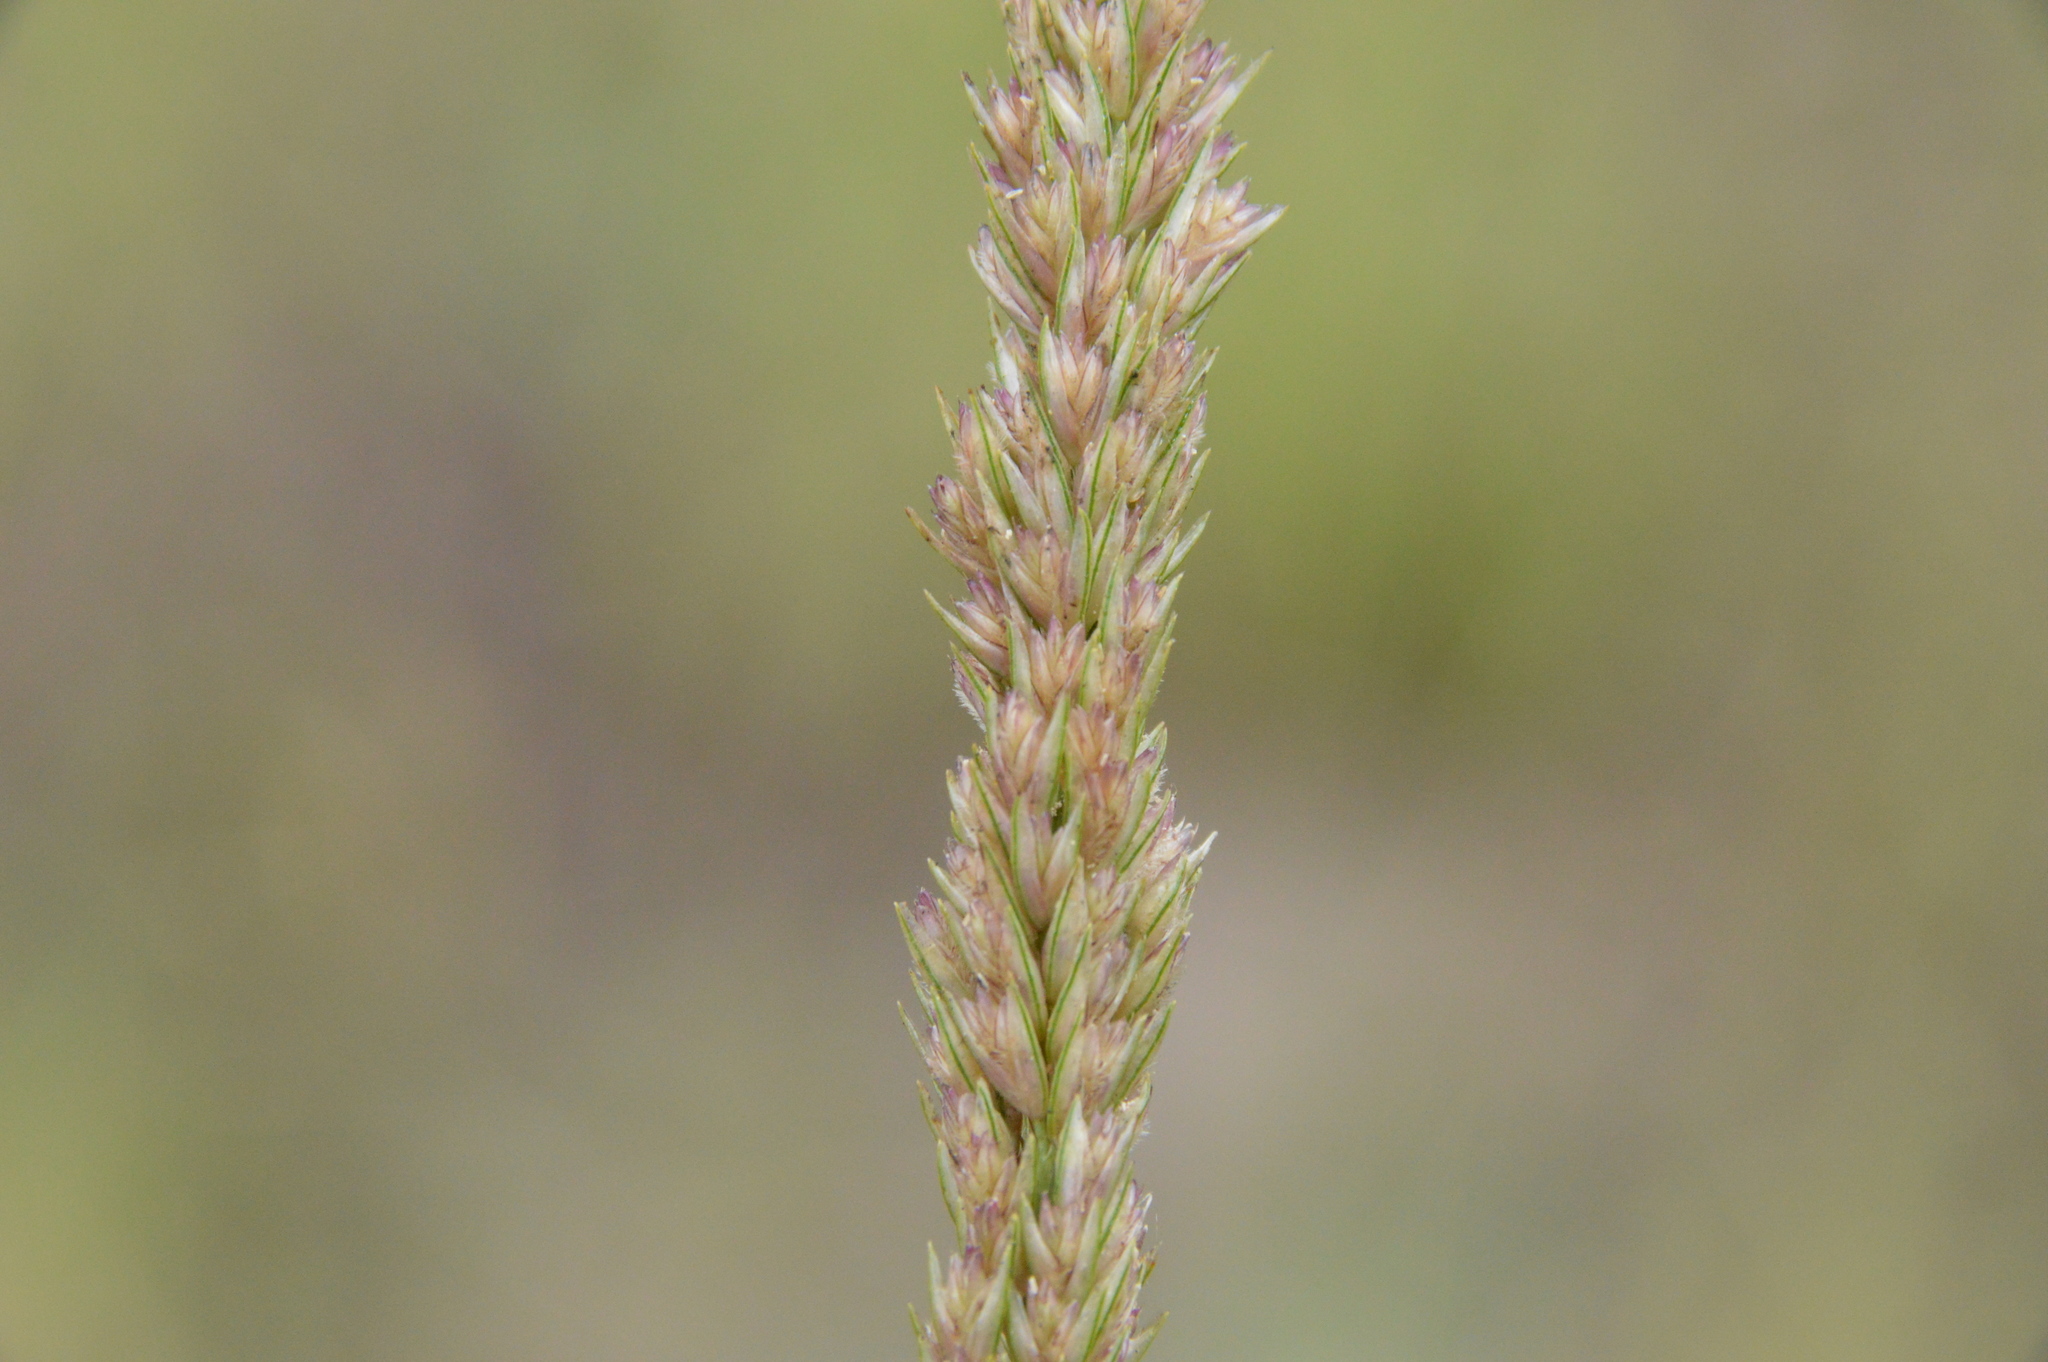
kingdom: Plantae
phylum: Tracheophyta
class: Liliopsida
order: Poales
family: Poaceae
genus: Tridens
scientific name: Tridens strictus
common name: Long-spike tridens
